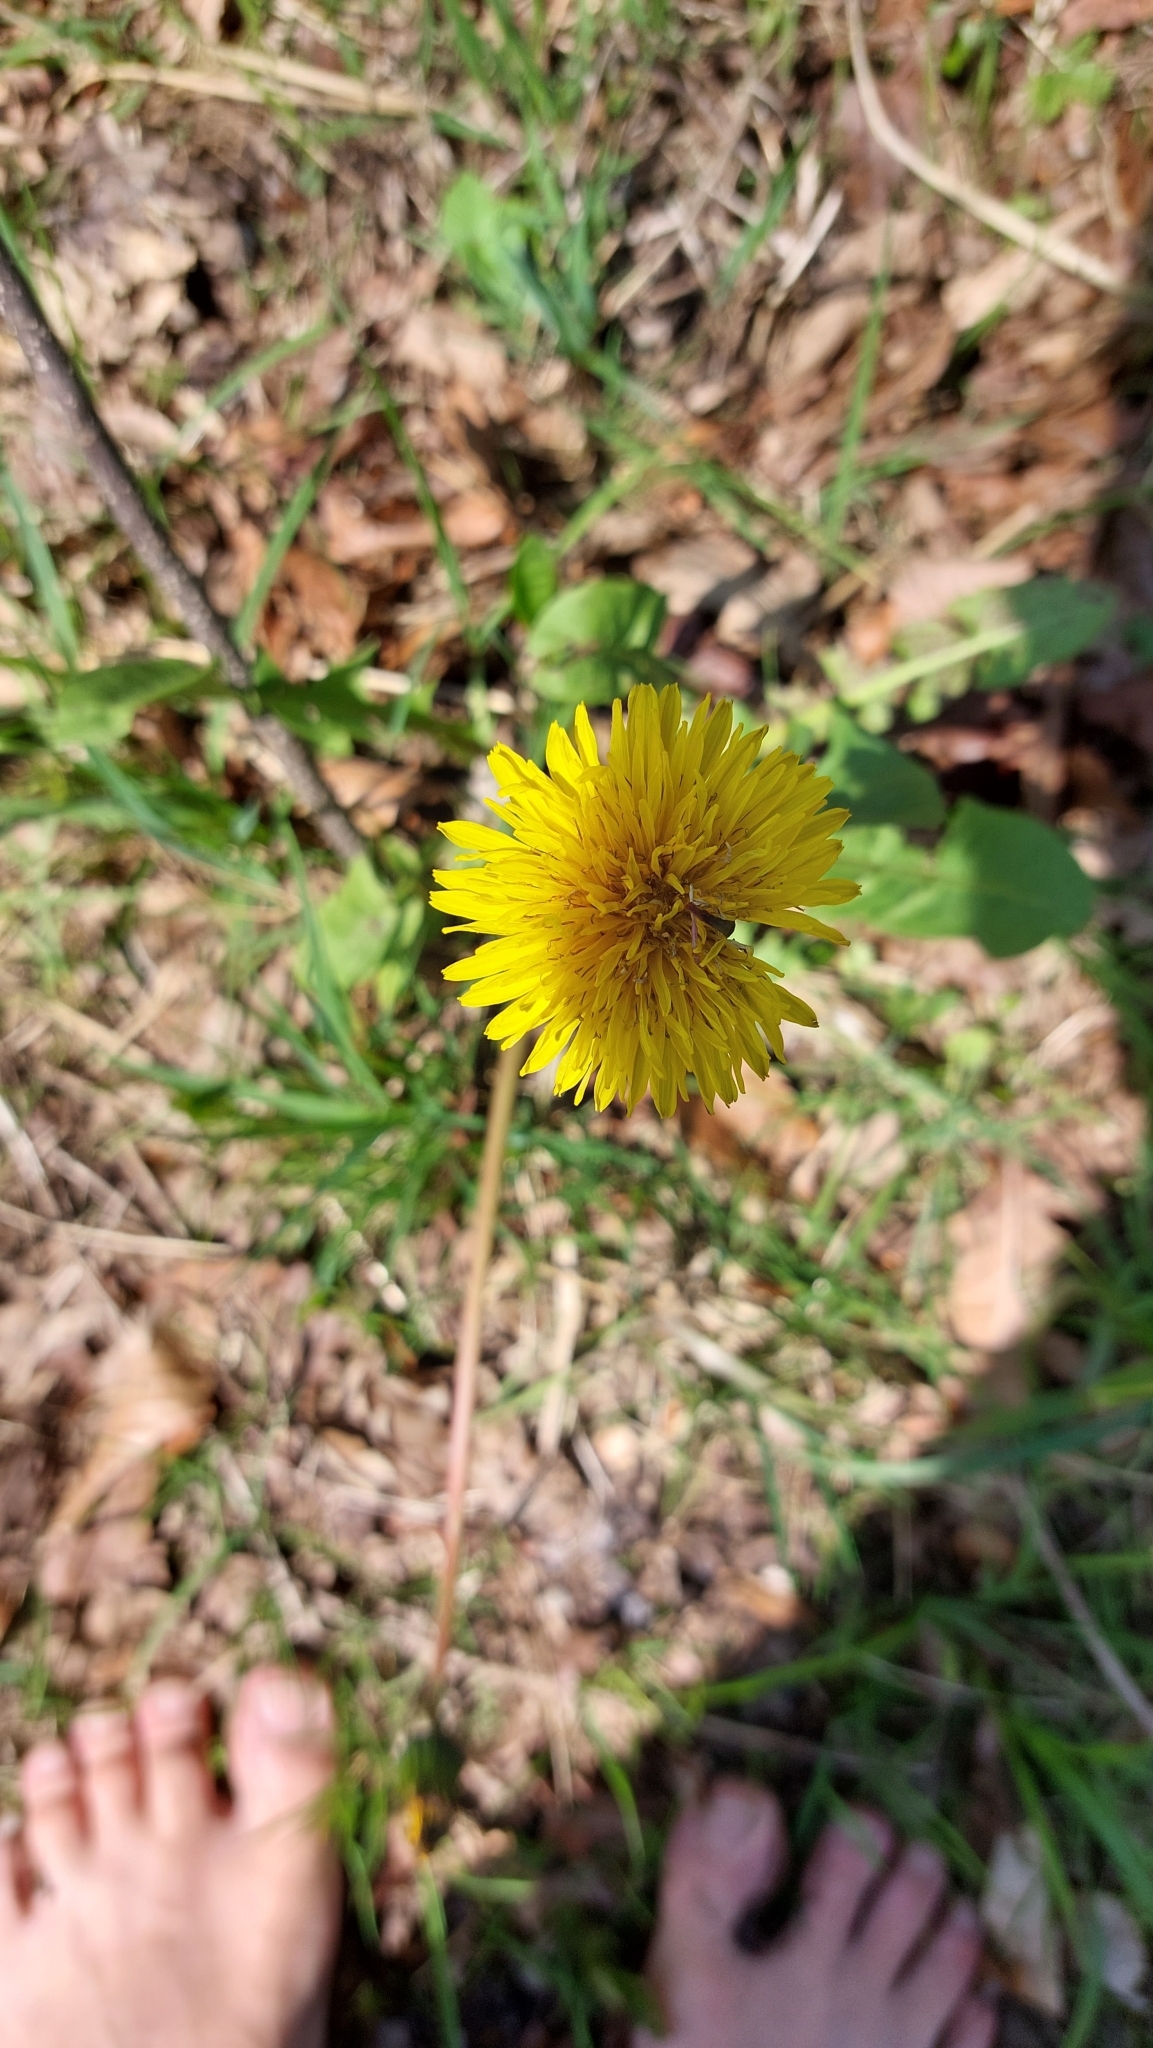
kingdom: Plantae
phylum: Tracheophyta
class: Magnoliopsida
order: Asterales
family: Asteraceae
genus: Taraxacum
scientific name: Taraxacum
